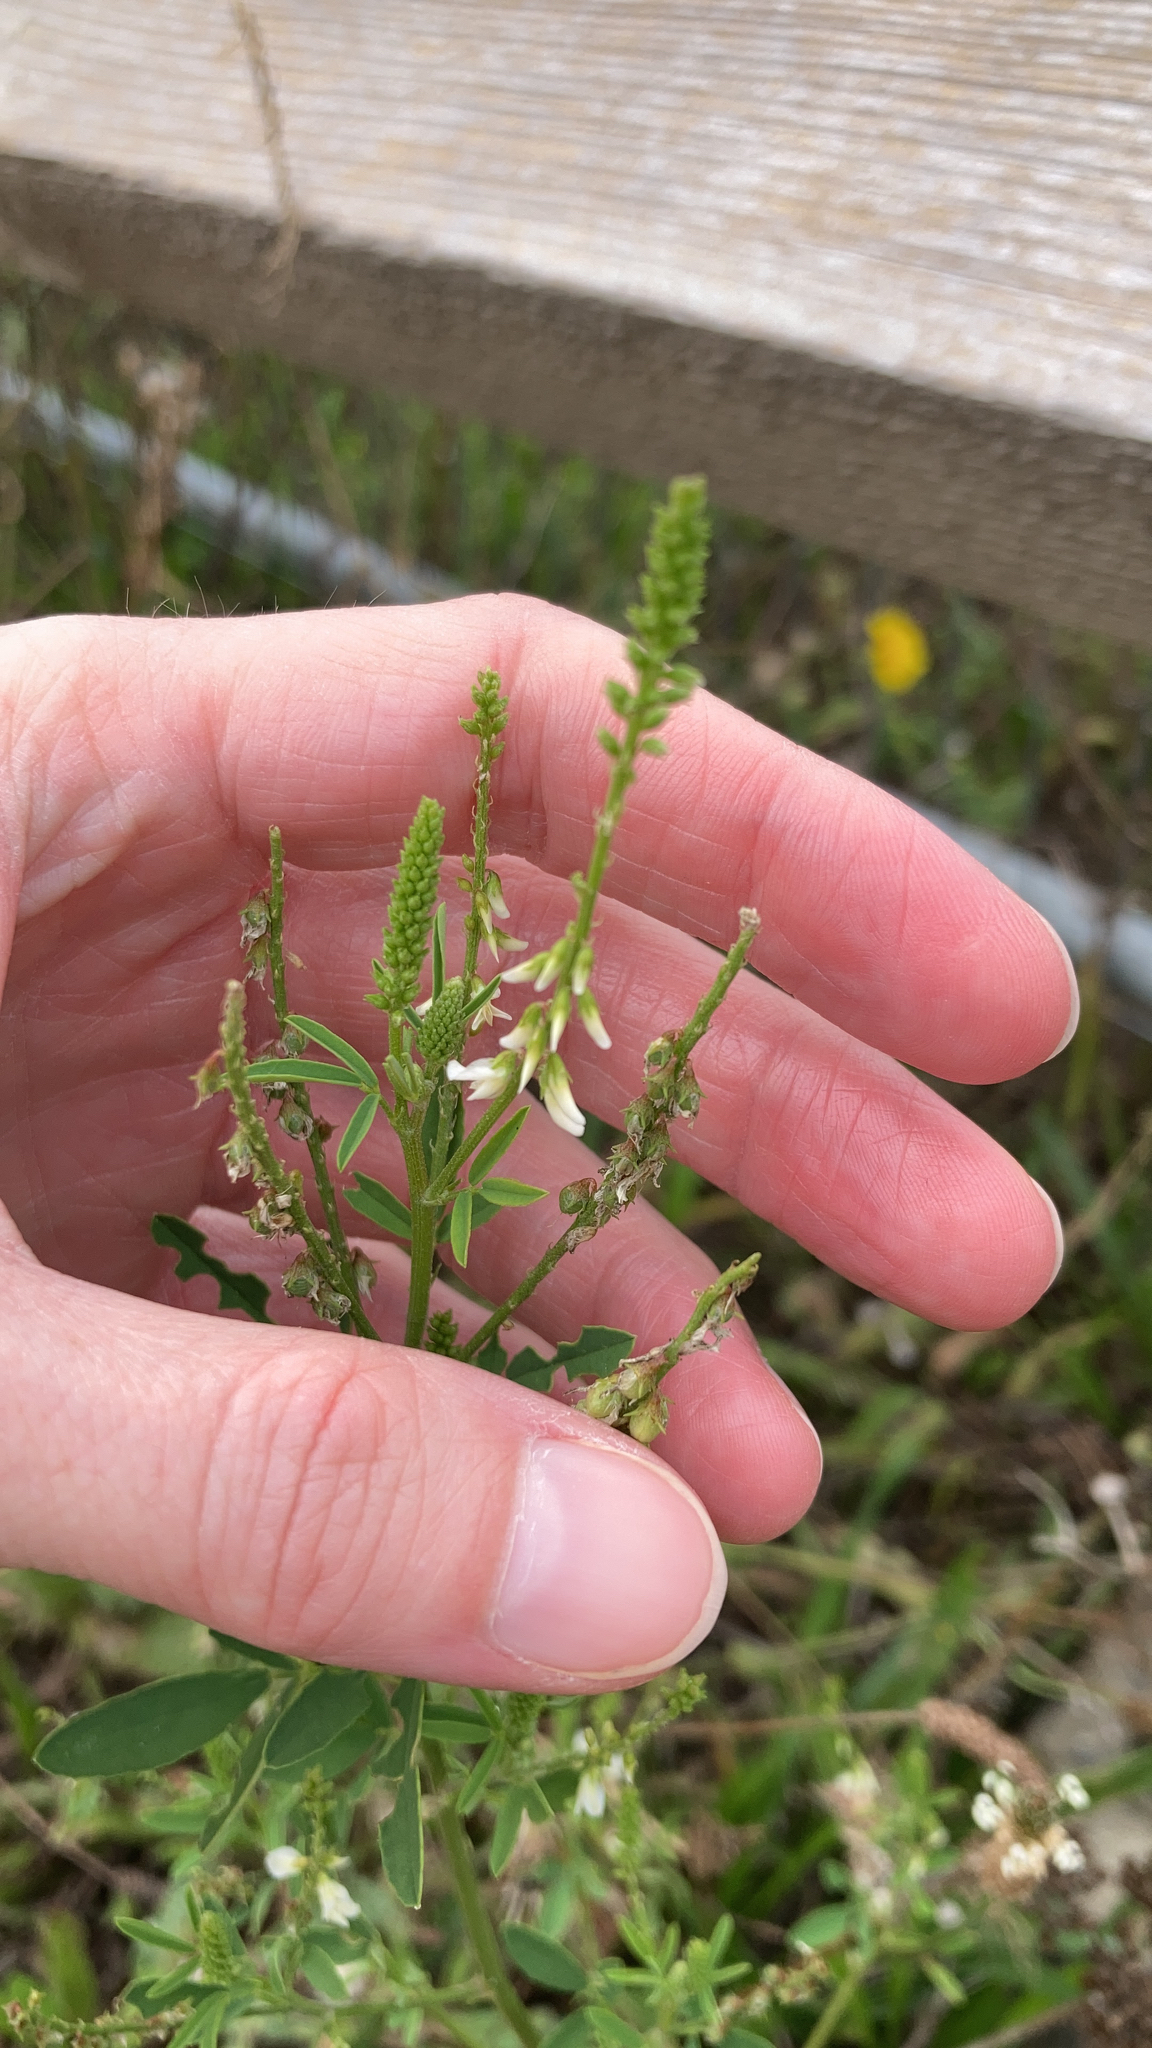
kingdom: Plantae
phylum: Tracheophyta
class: Magnoliopsida
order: Fabales
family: Fabaceae
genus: Melilotus
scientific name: Melilotus albus
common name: White melilot
